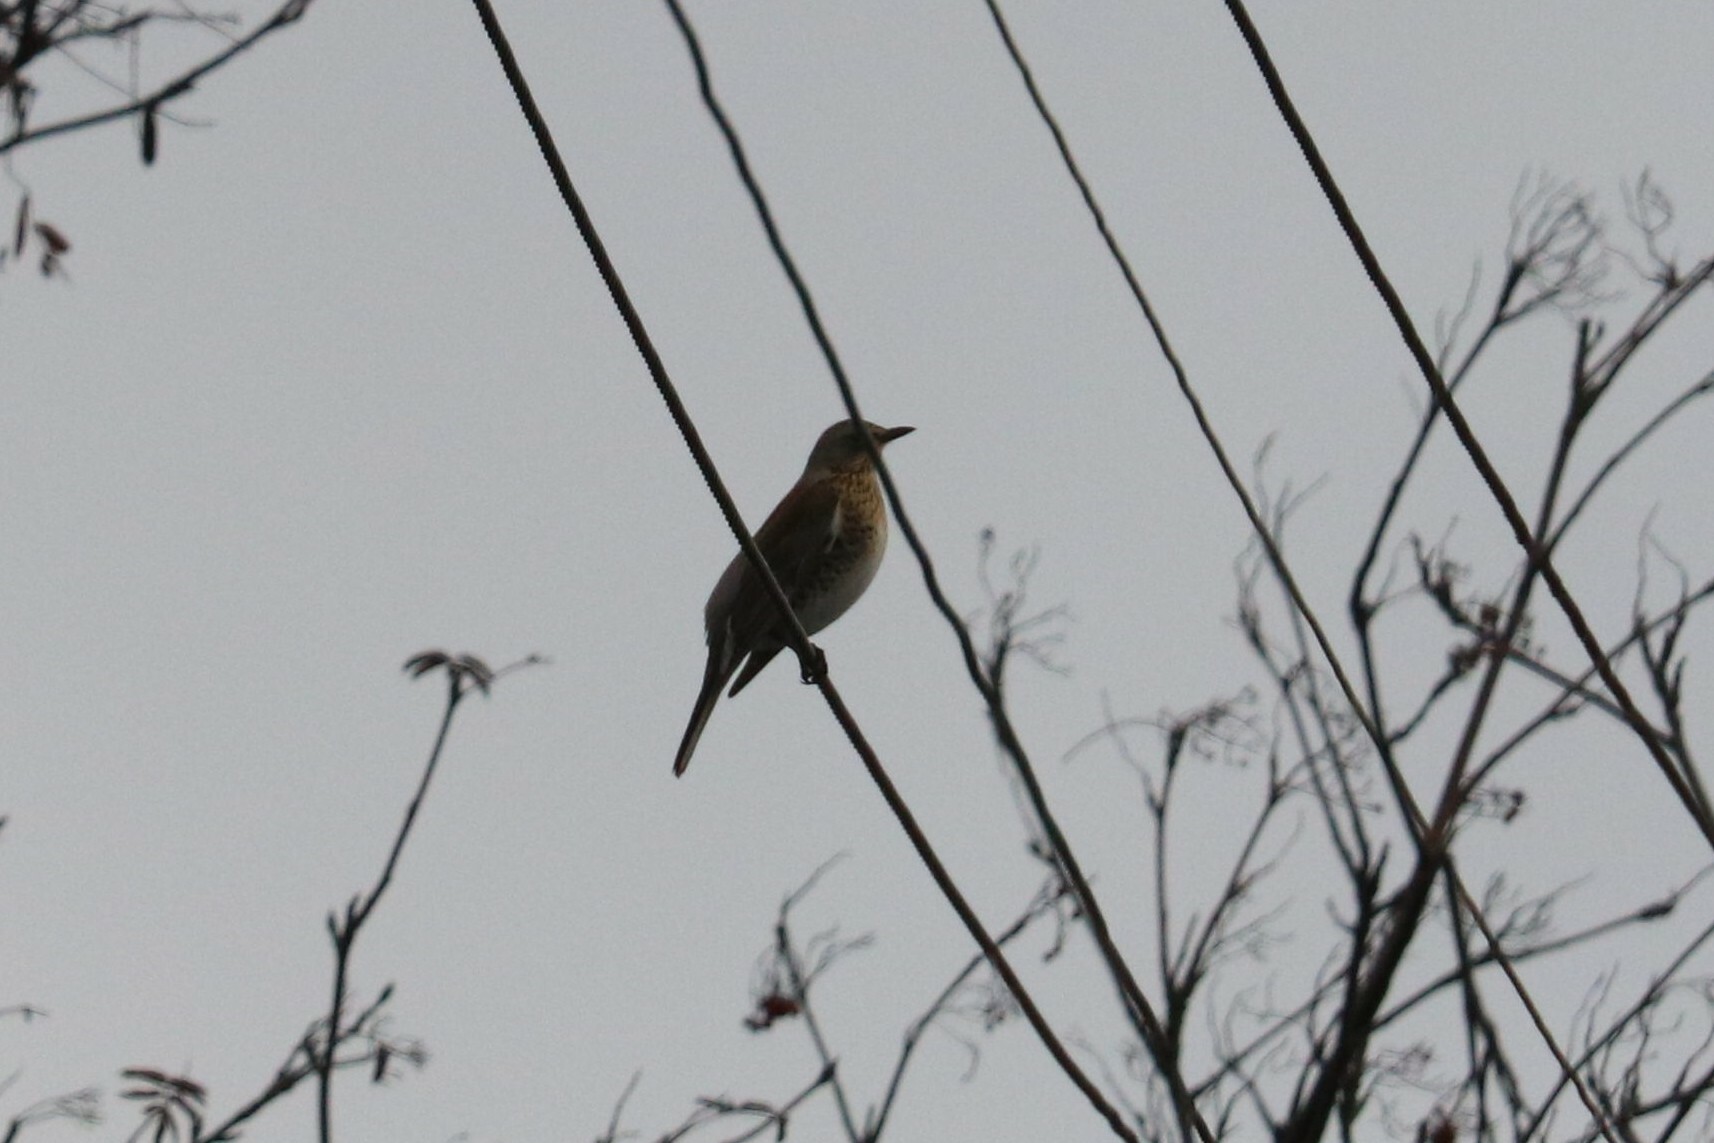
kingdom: Animalia
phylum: Chordata
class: Aves
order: Passeriformes
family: Turdidae
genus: Turdus
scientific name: Turdus pilaris
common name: Fieldfare
